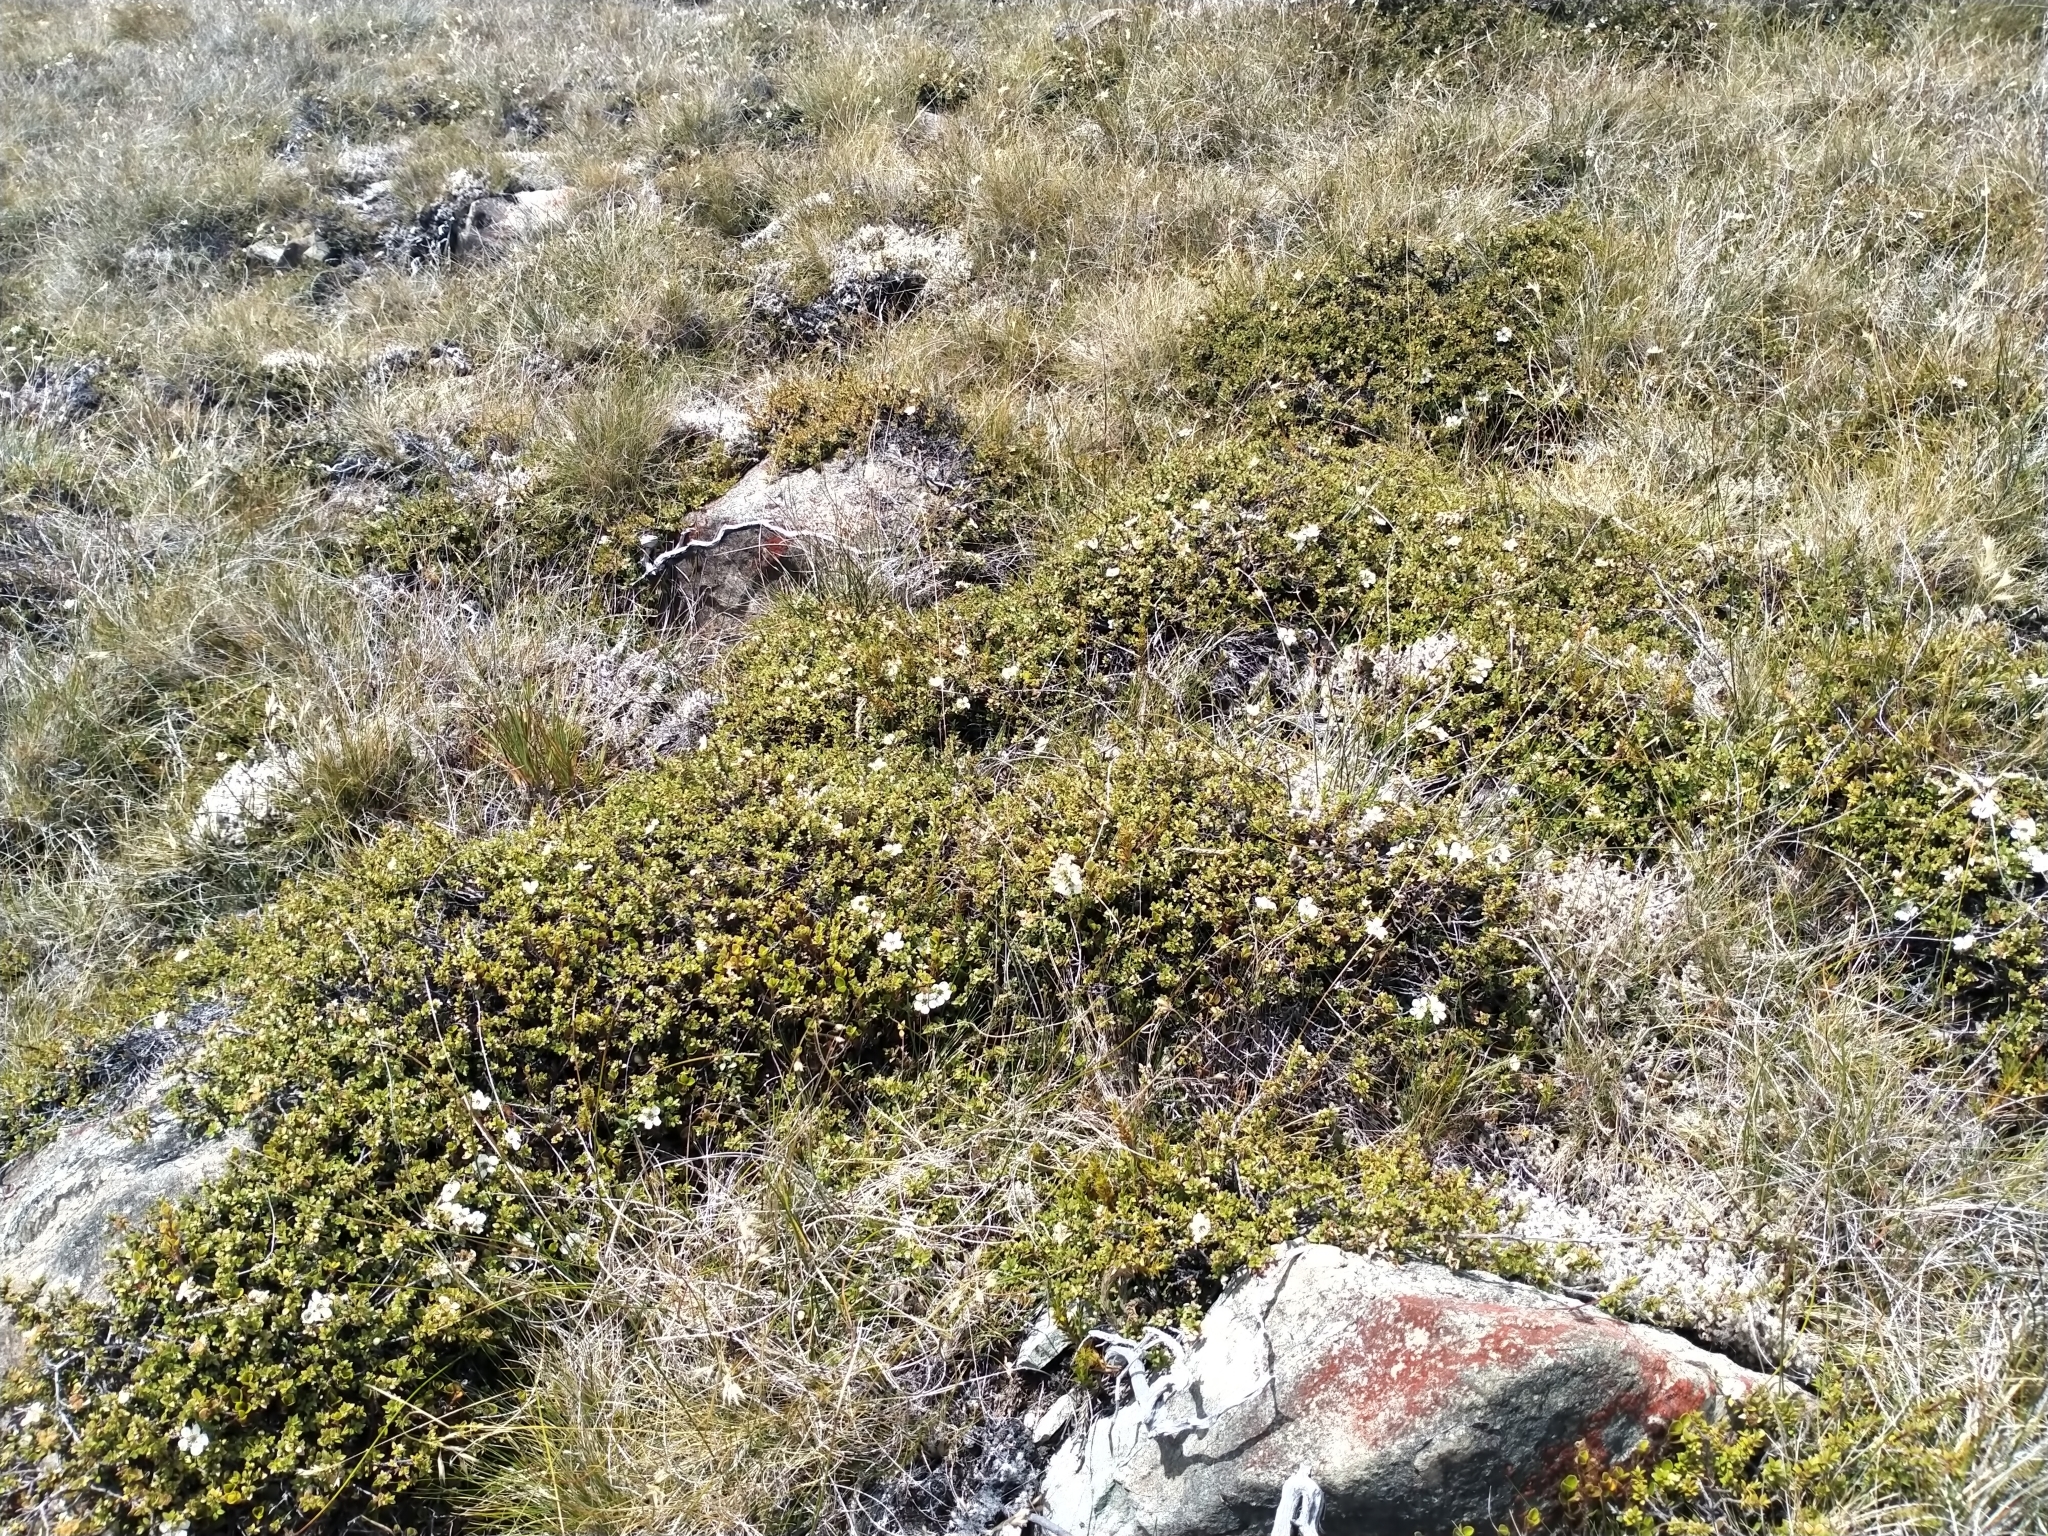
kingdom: Plantae
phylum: Tracheophyta
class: Magnoliopsida
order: Myrtales
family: Myrtaceae
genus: Leptospermum
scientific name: Leptospermum scoparium
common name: Broom tea-tree
